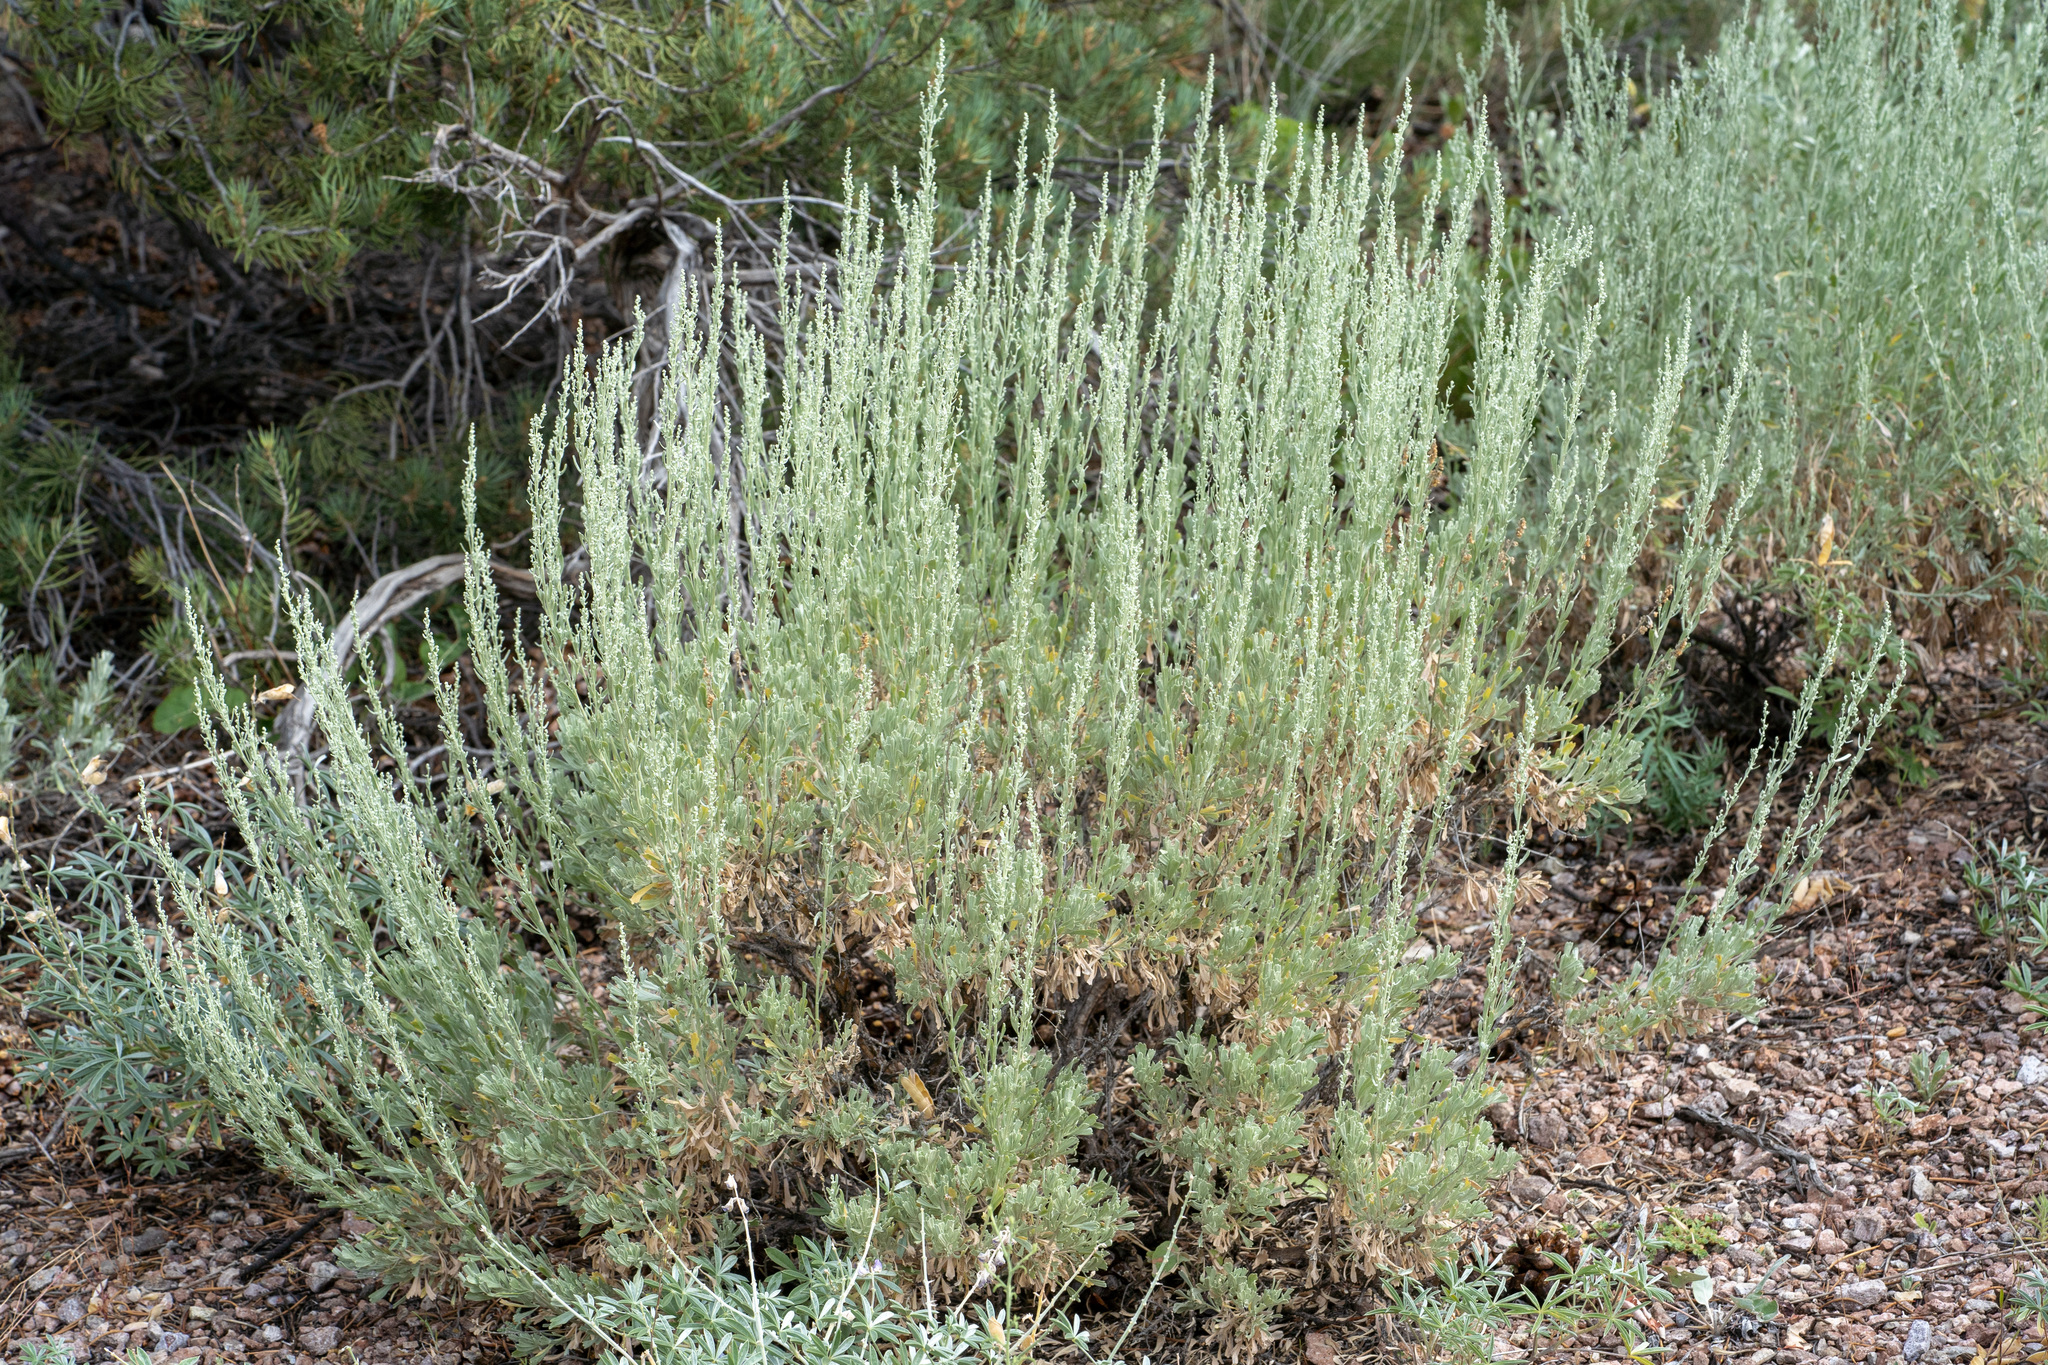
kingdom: Plantae
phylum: Tracheophyta
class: Magnoliopsida
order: Asterales
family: Asteraceae
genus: Artemisia
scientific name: Artemisia tridentata
